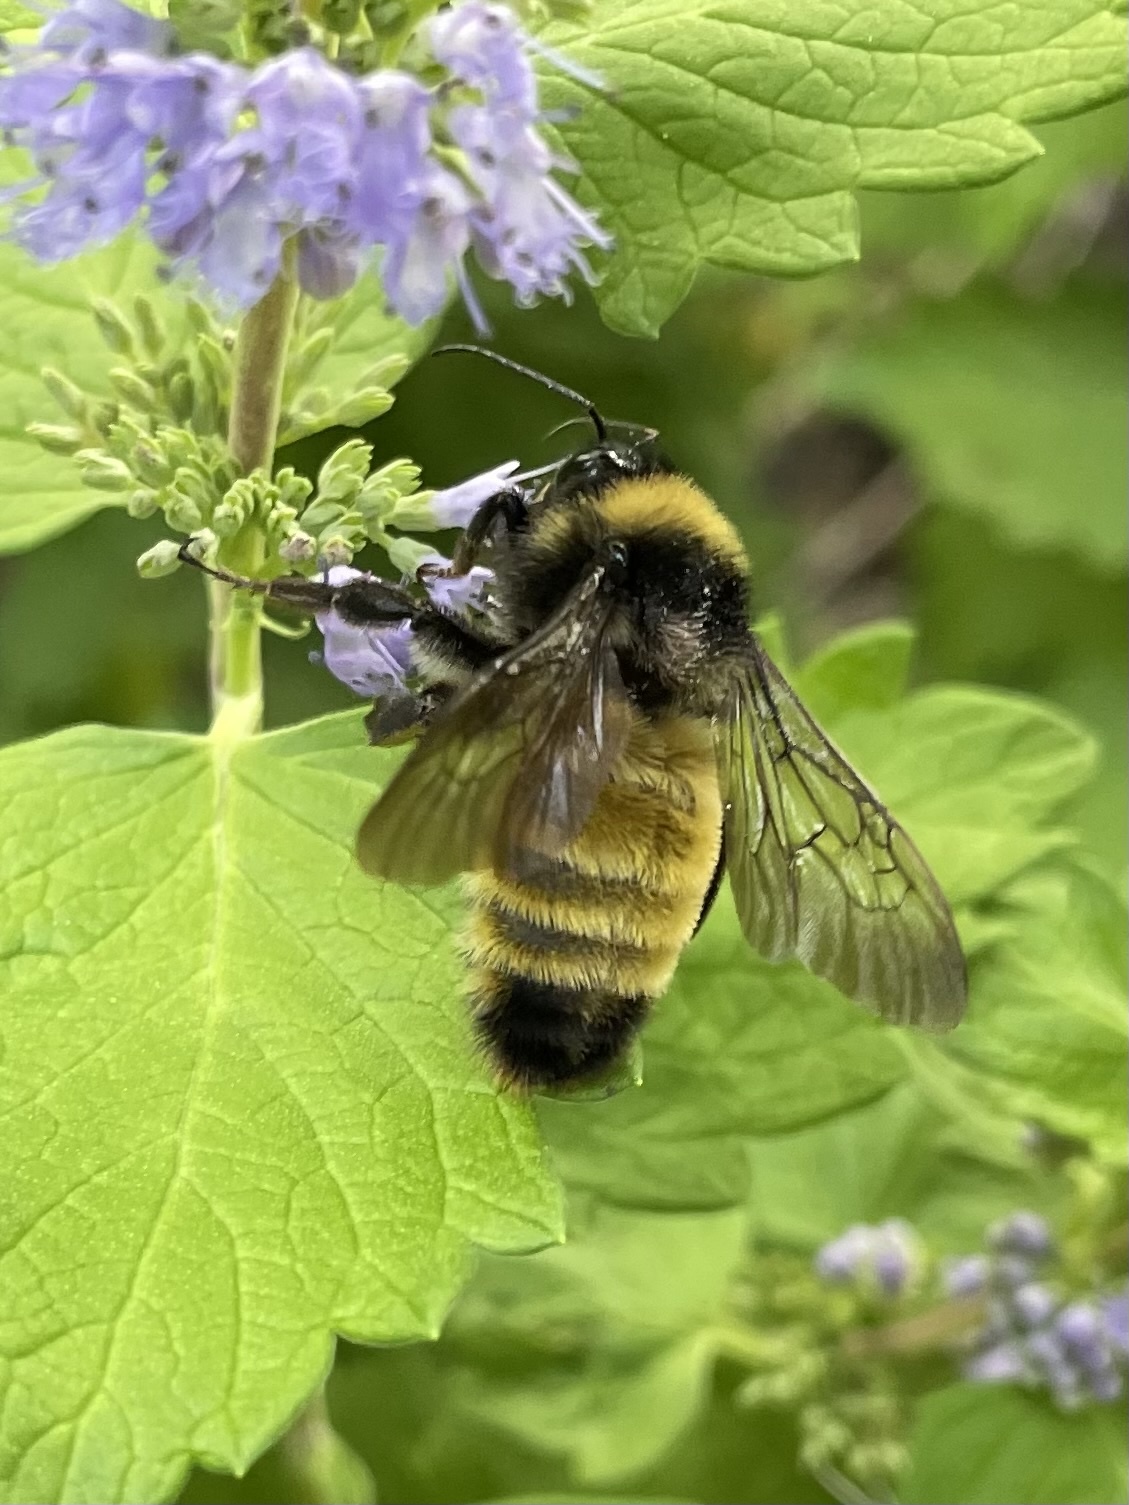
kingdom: Animalia
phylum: Arthropoda
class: Insecta
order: Hymenoptera
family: Apidae
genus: Bombus
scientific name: Bombus pensylvanicus
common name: Bumble bee
